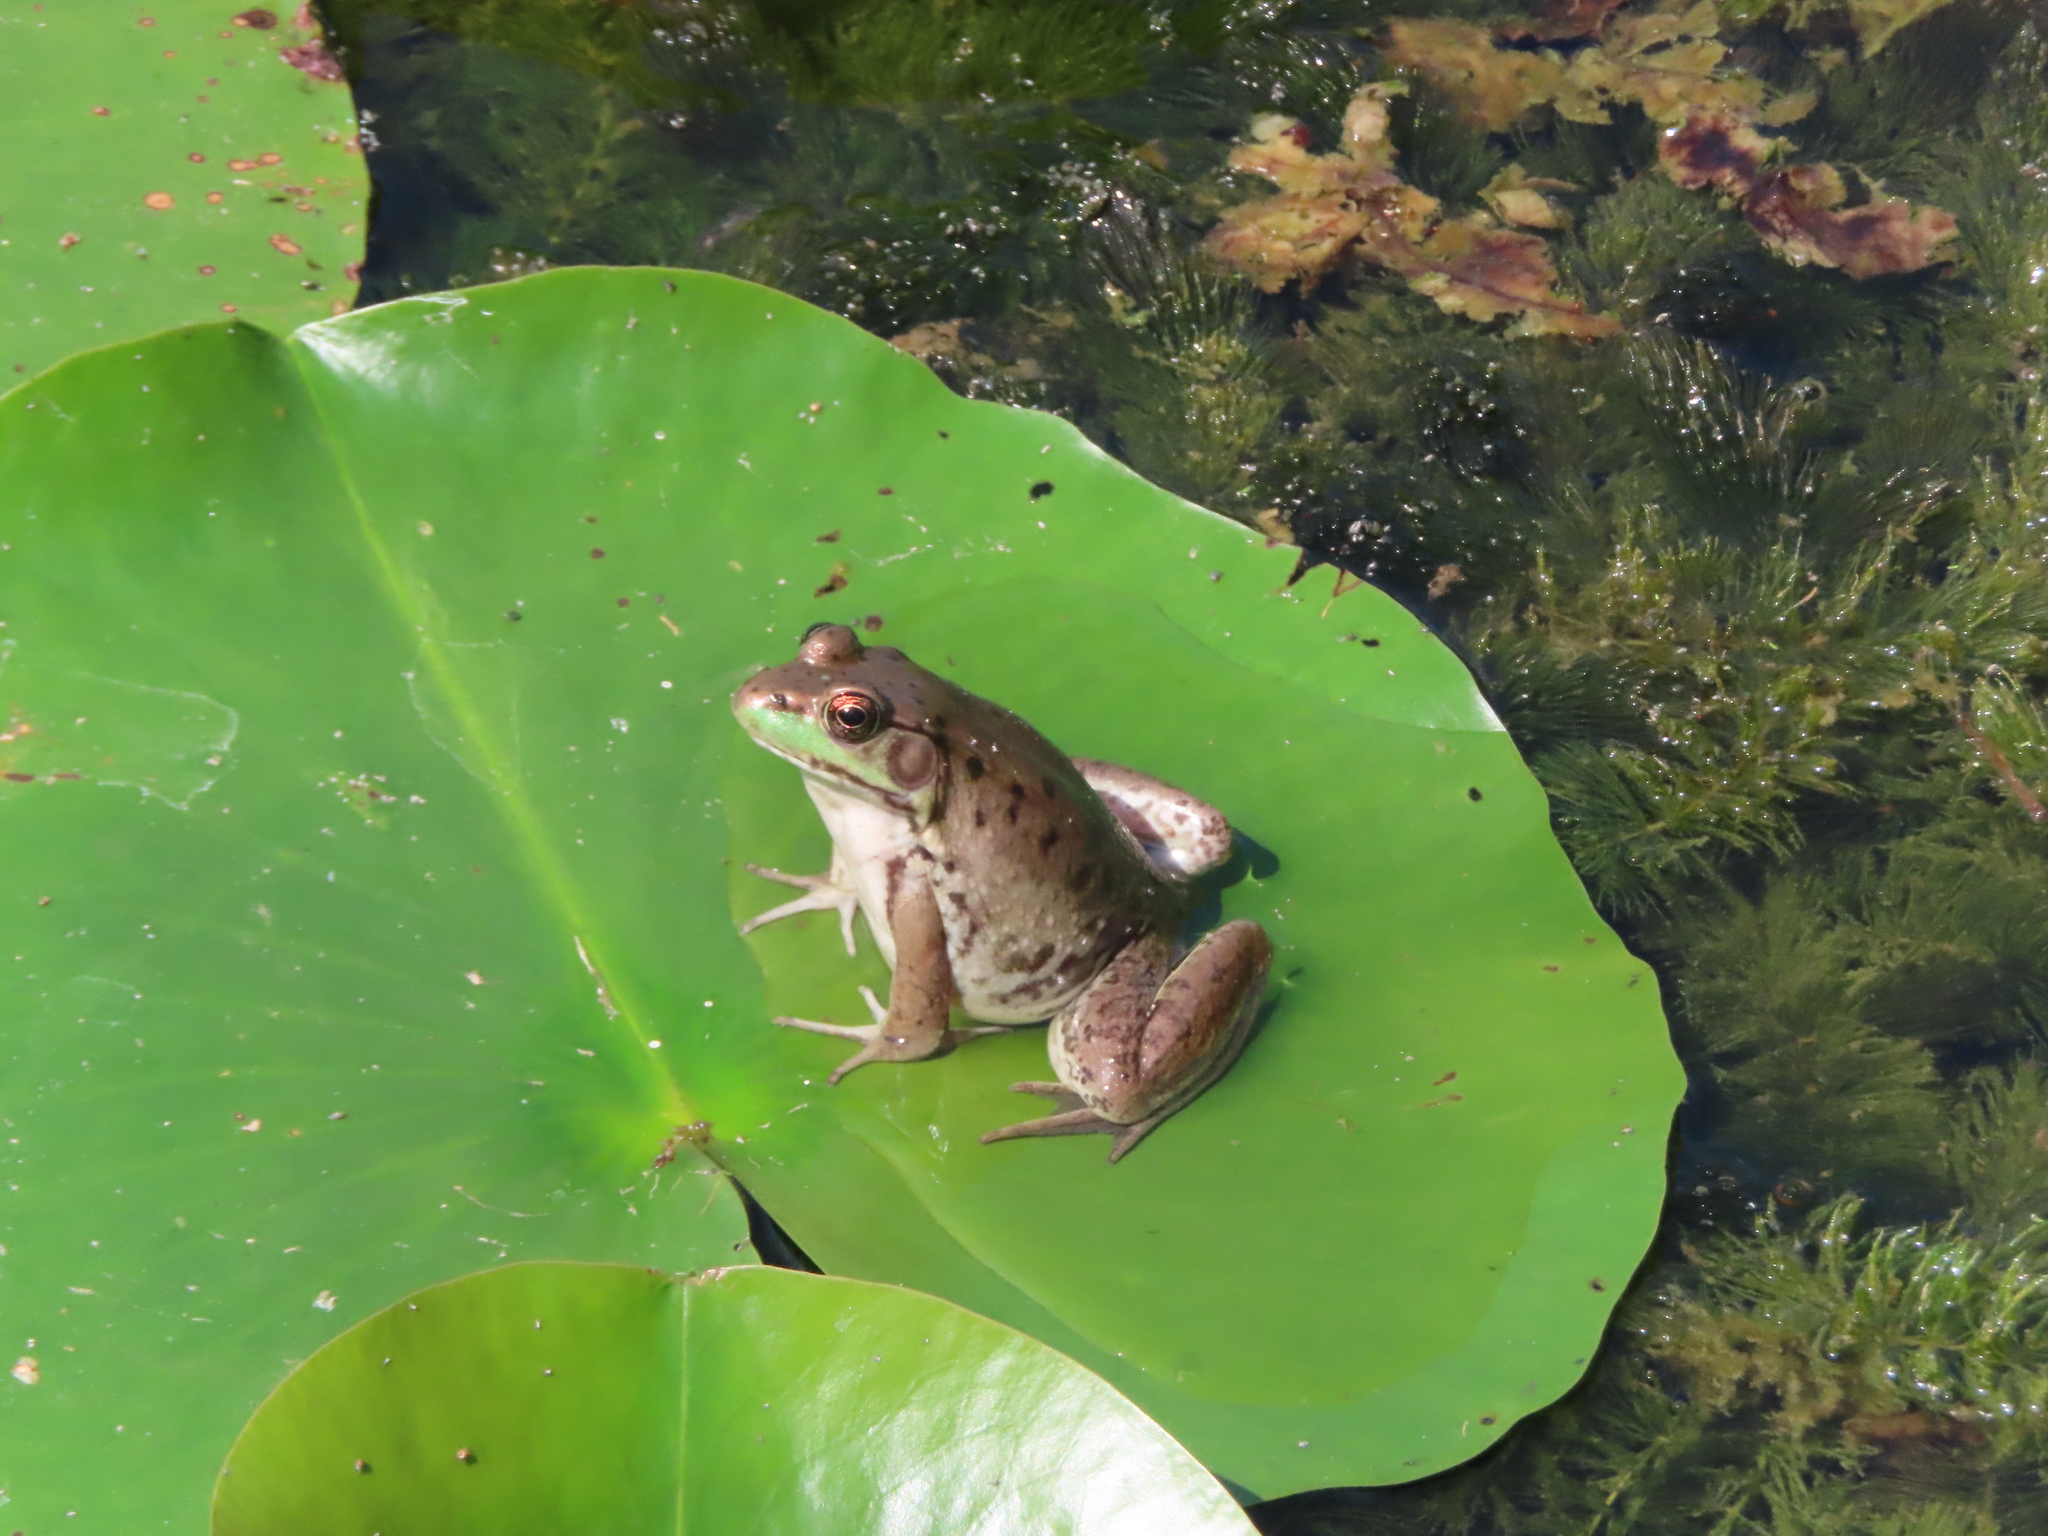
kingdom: Animalia
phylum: Chordata
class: Amphibia
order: Anura
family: Ranidae
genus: Lithobates
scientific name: Lithobates clamitans
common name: Green frog
